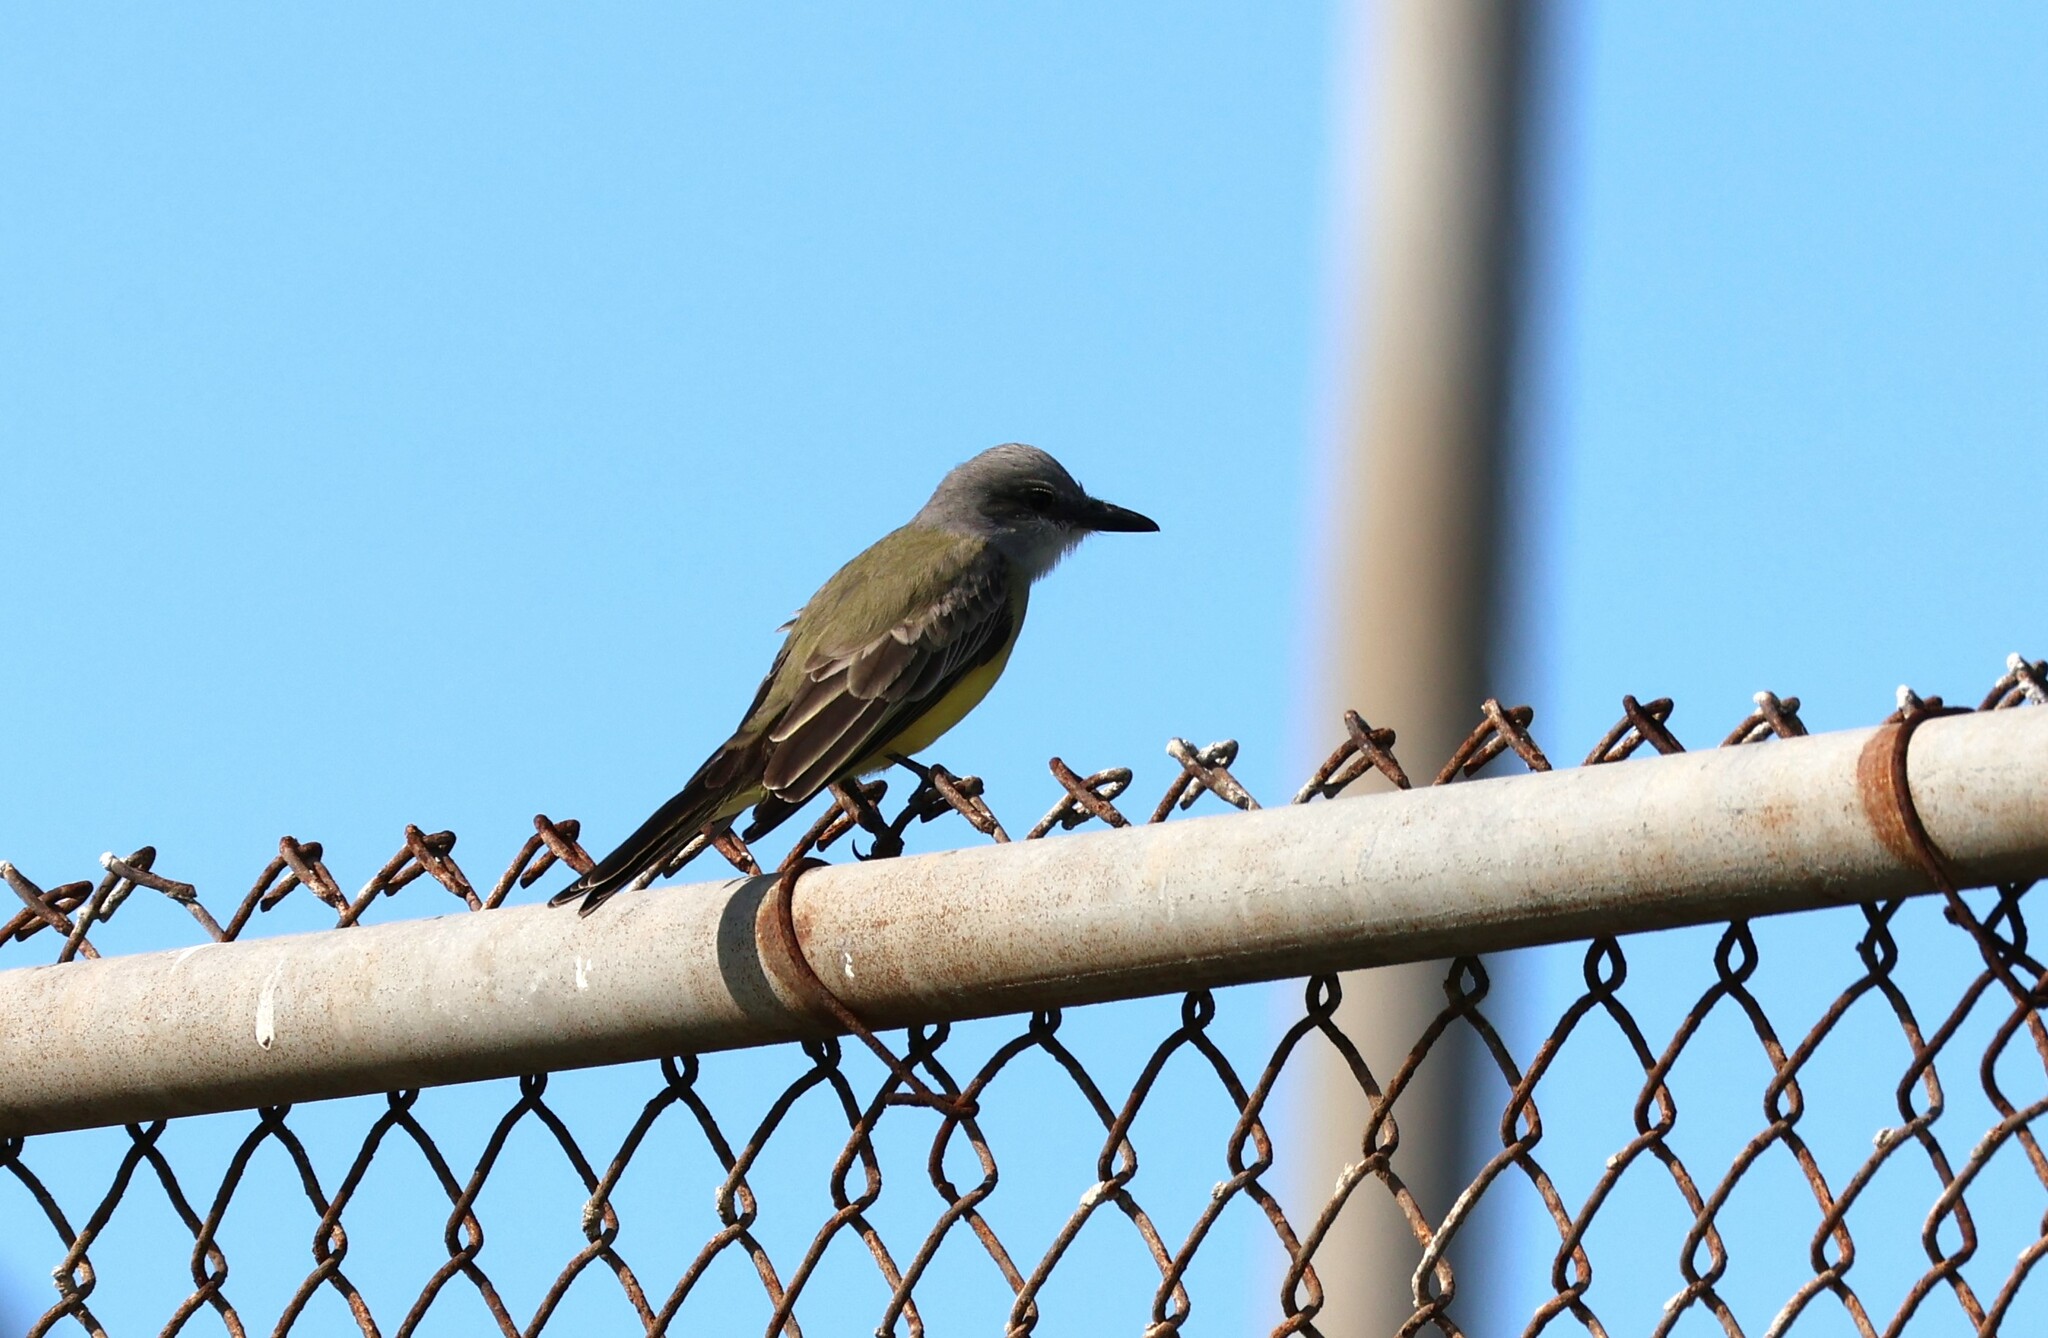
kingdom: Animalia
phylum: Chordata
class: Aves
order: Passeriformes
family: Tyrannidae
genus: Tyrannus
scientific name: Tyrannus melancholicus
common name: Tropical kingbird
